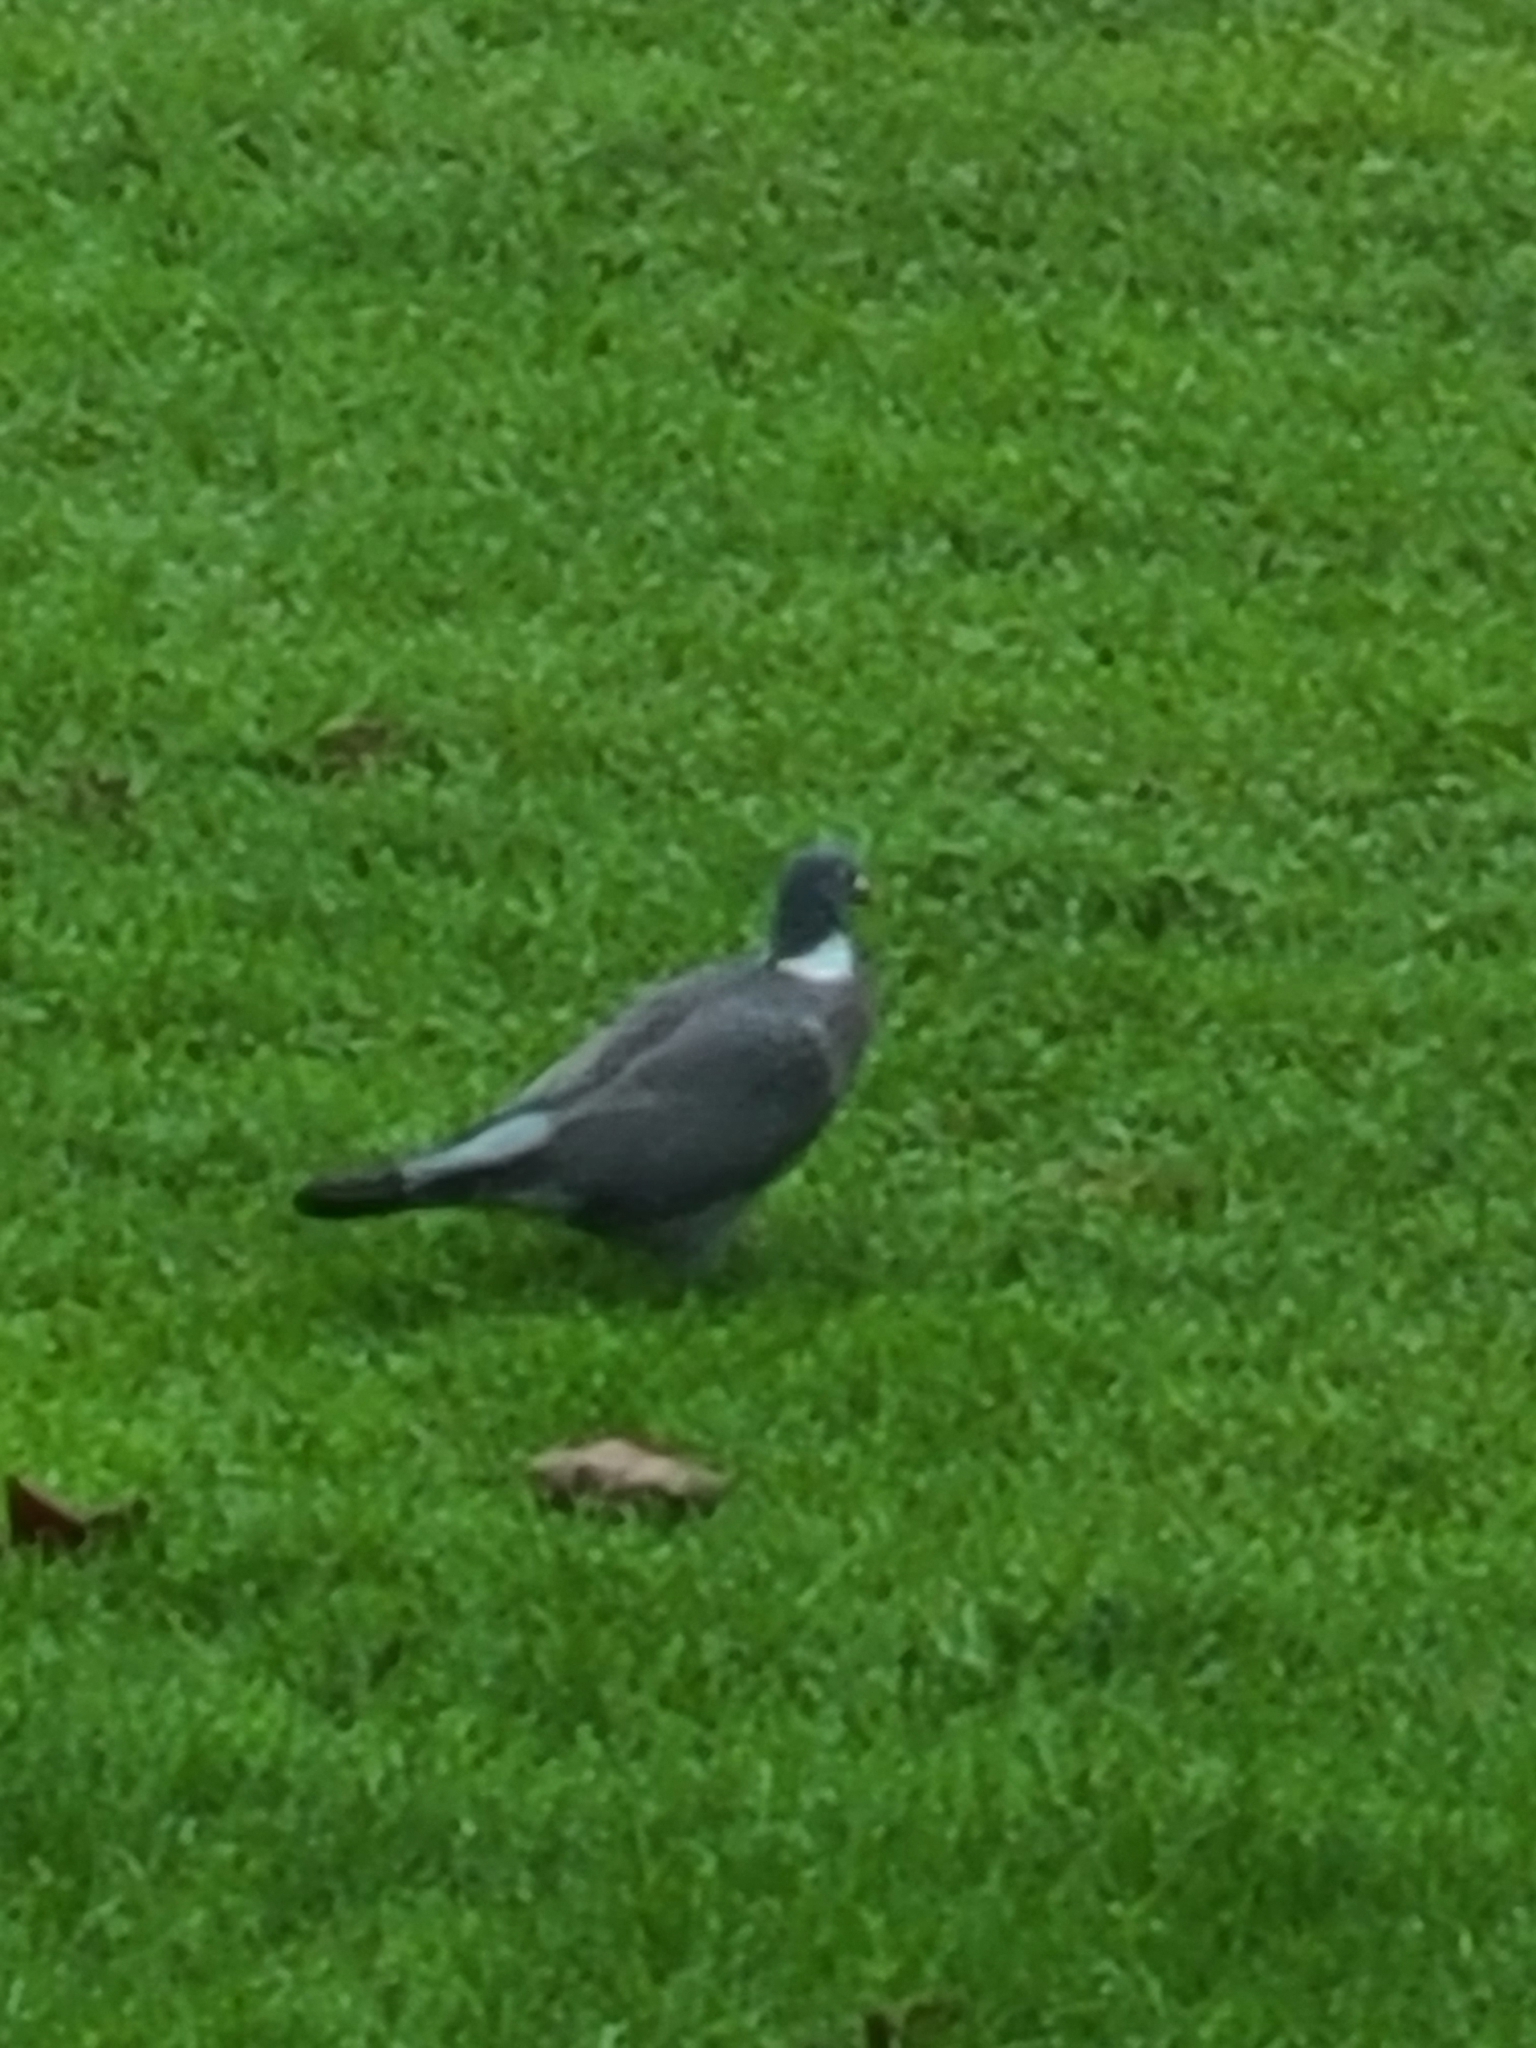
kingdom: Animalia
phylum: Chordata
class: Aves
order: Columbiformes
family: Columbidae
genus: Columba
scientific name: Columba palumbus
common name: Common wood pigeon
